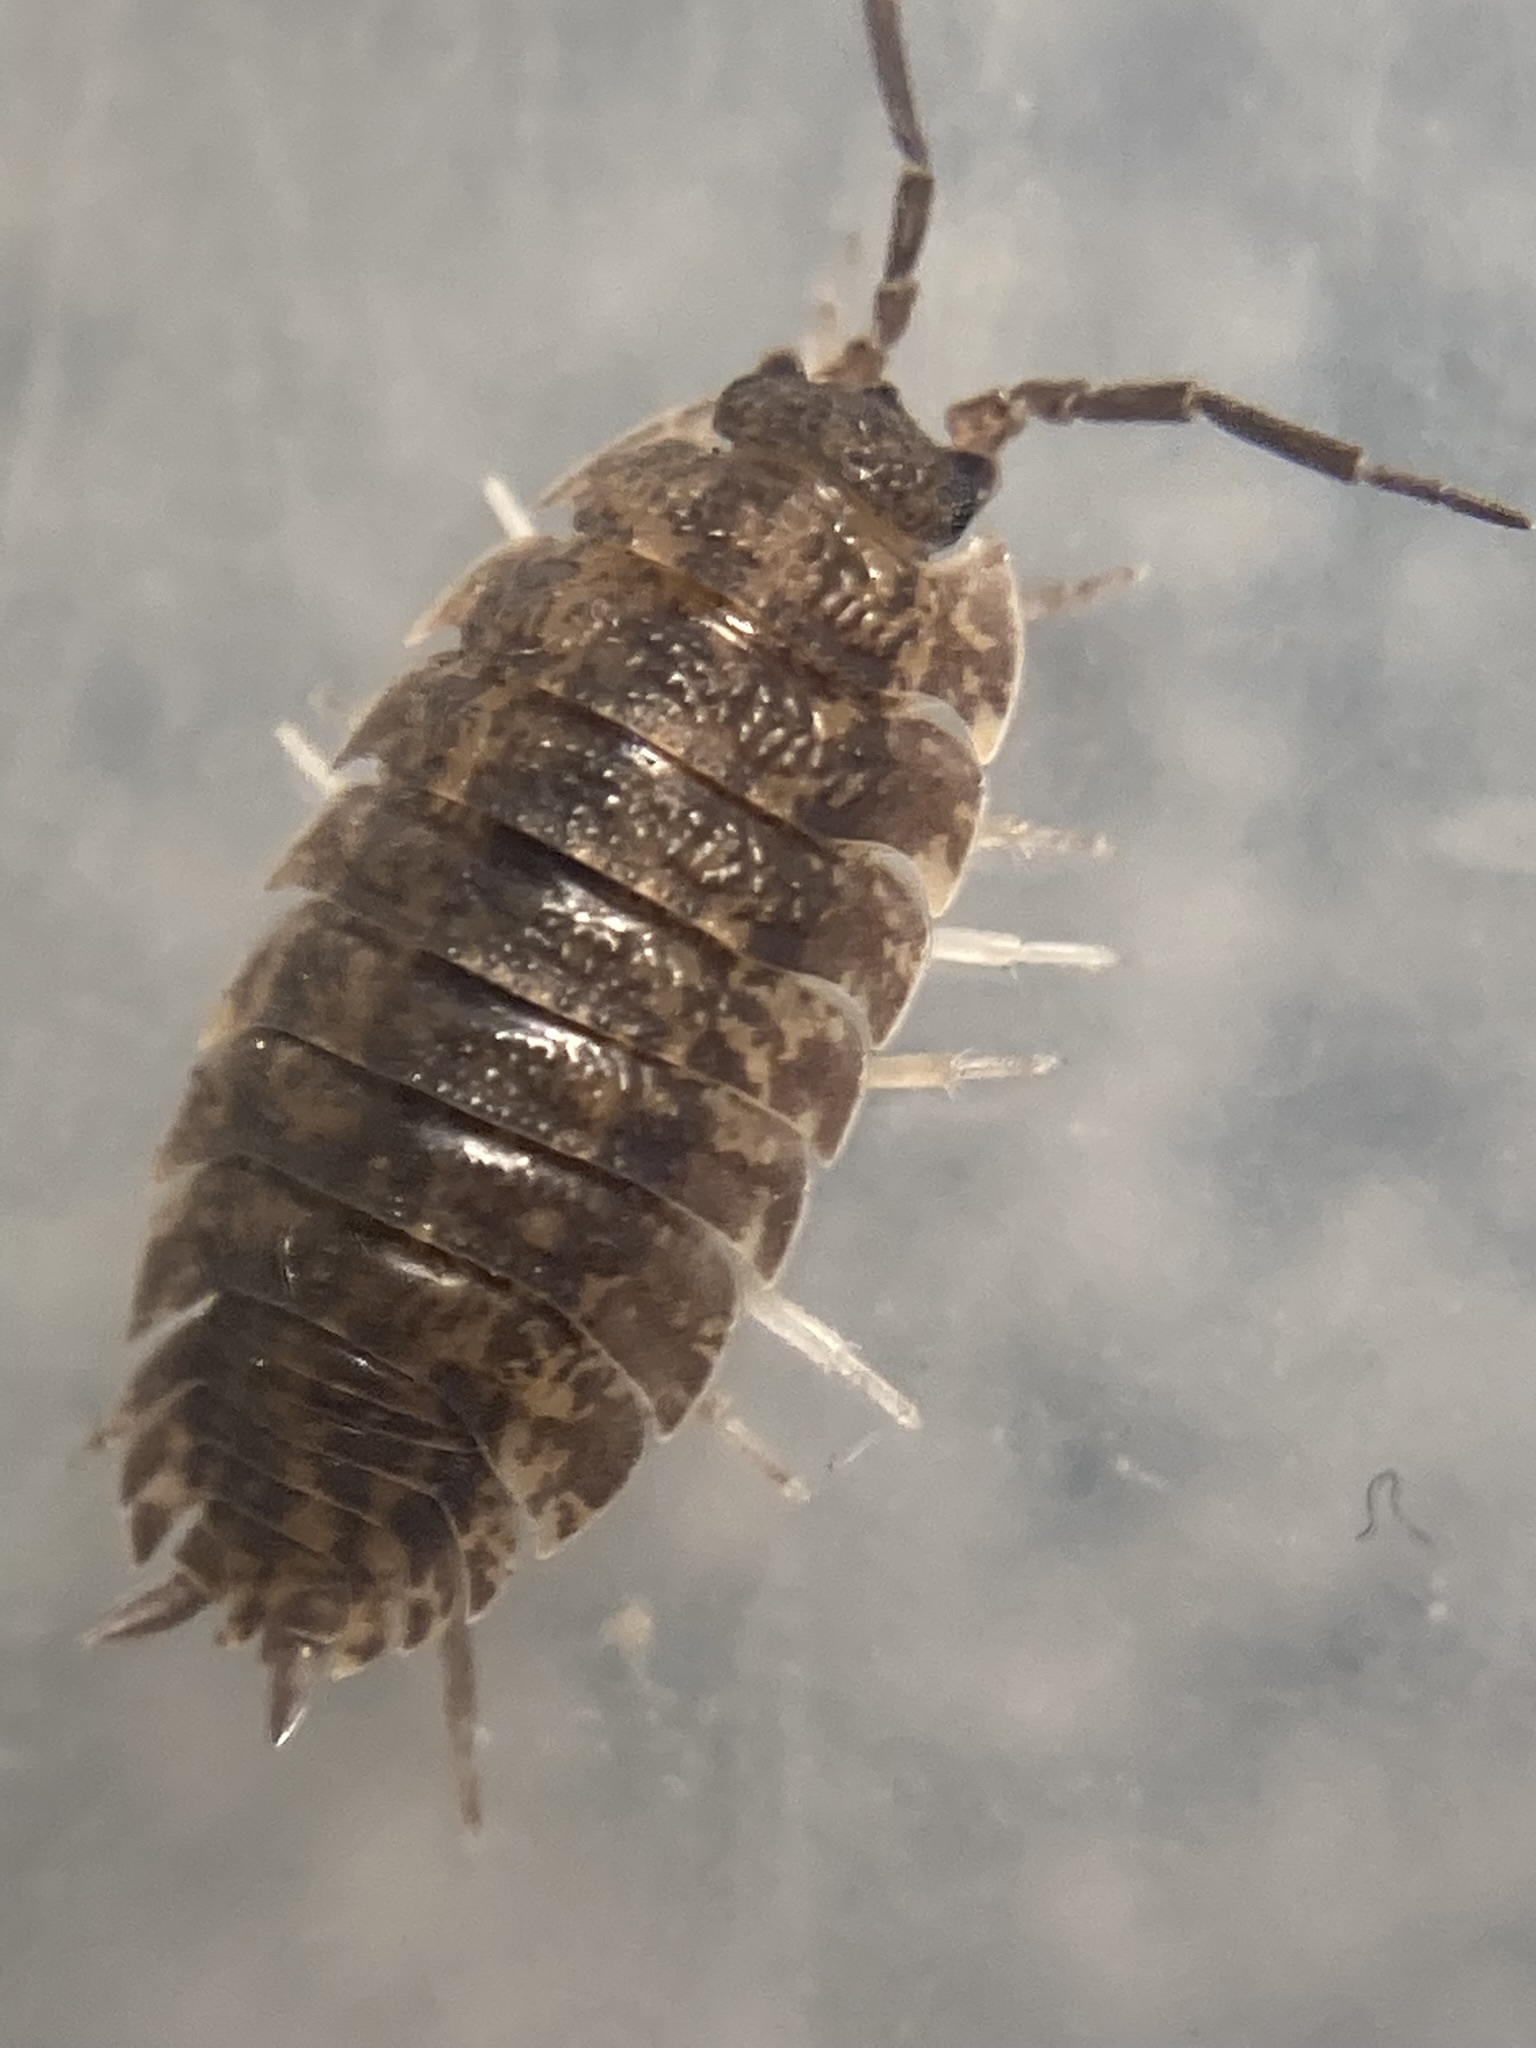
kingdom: Animalia
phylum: Arthropoda
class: Malacostraca
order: Isopoda
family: Porcellionidae
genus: Porcellio
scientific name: Porcellio scaber
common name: Common rough woodlouse
